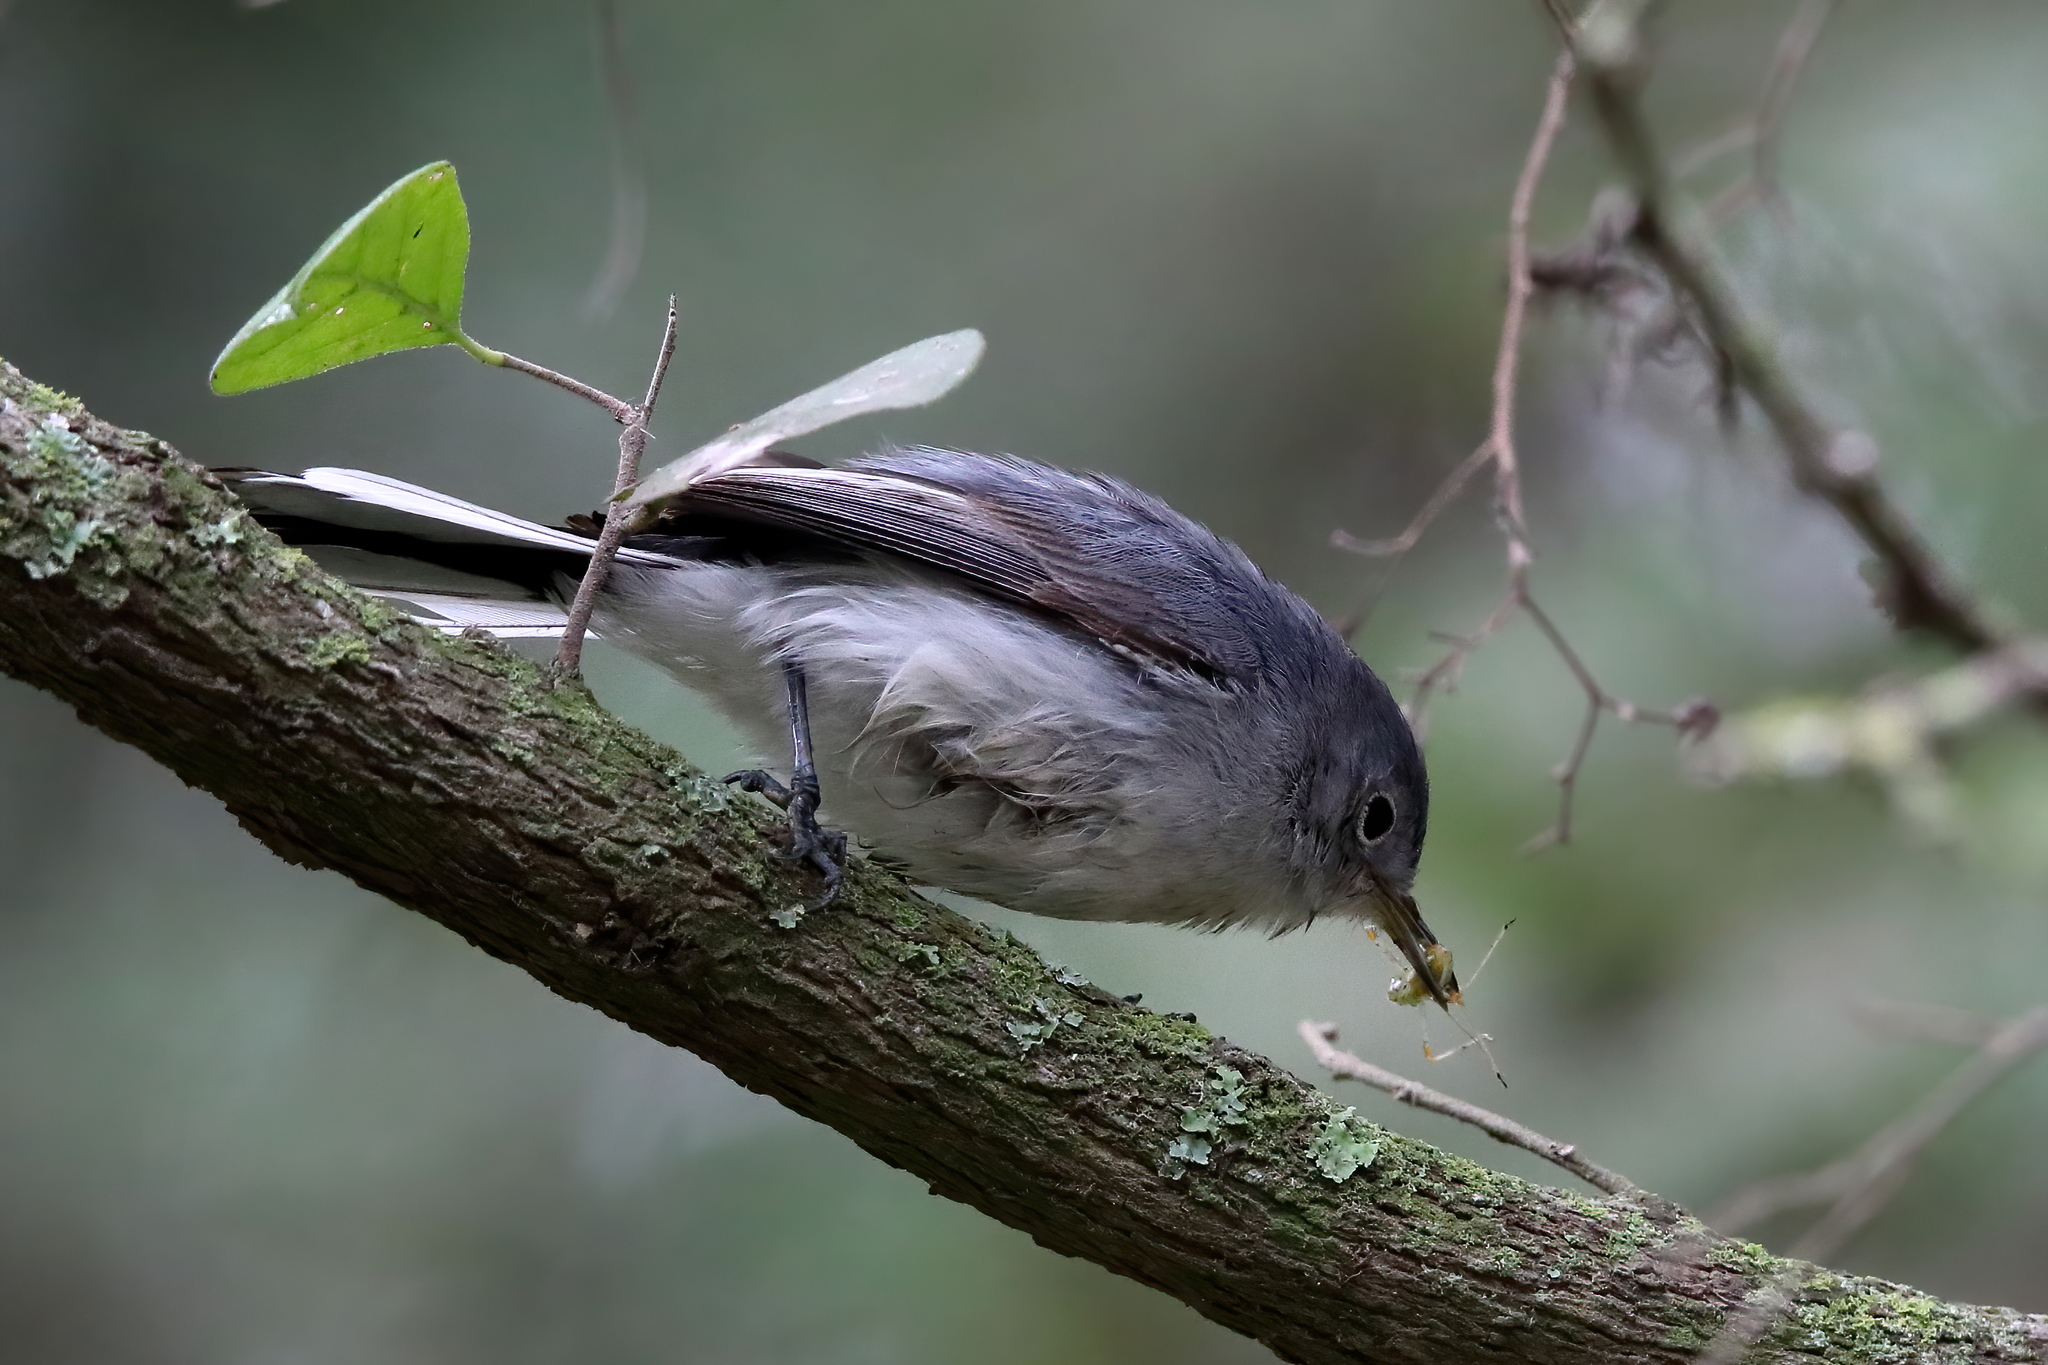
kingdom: Animalia
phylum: Chordata
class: Aves
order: Passeriformes
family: Polioptilidae
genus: Polioptila
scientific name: Polioptila caerulea
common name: Blue-gray gnatcatcher
